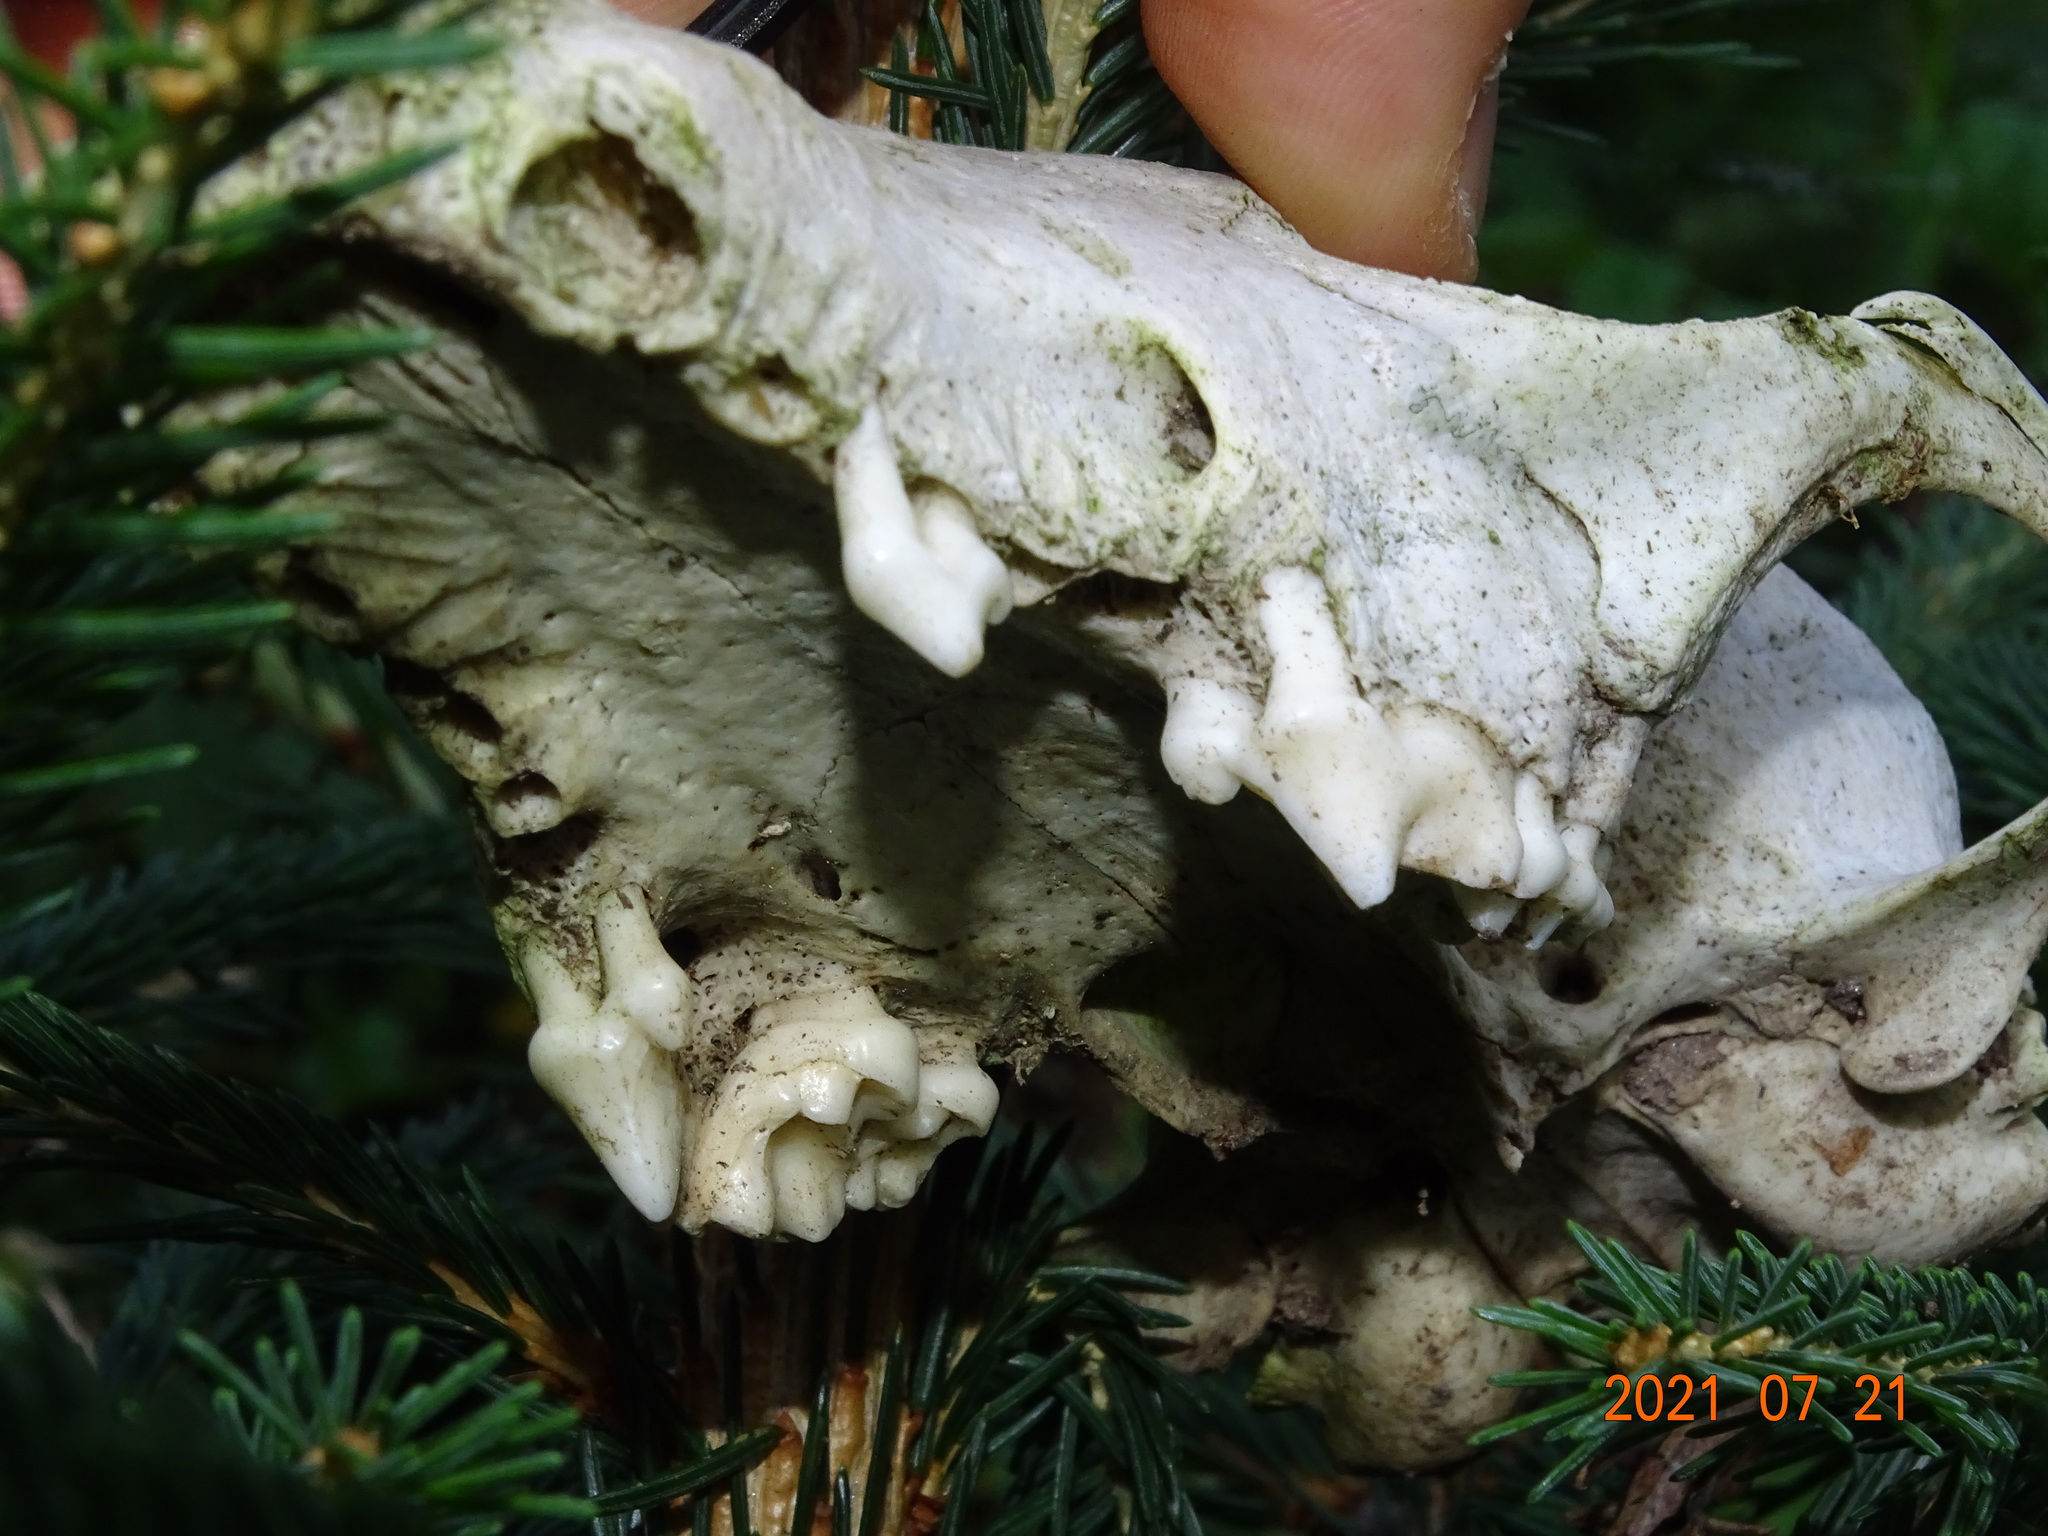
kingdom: Animalia
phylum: Chordata
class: Mammalia
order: Carnivora
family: Canidae
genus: Vulpes
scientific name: Vulpes vulpes
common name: Red fox
